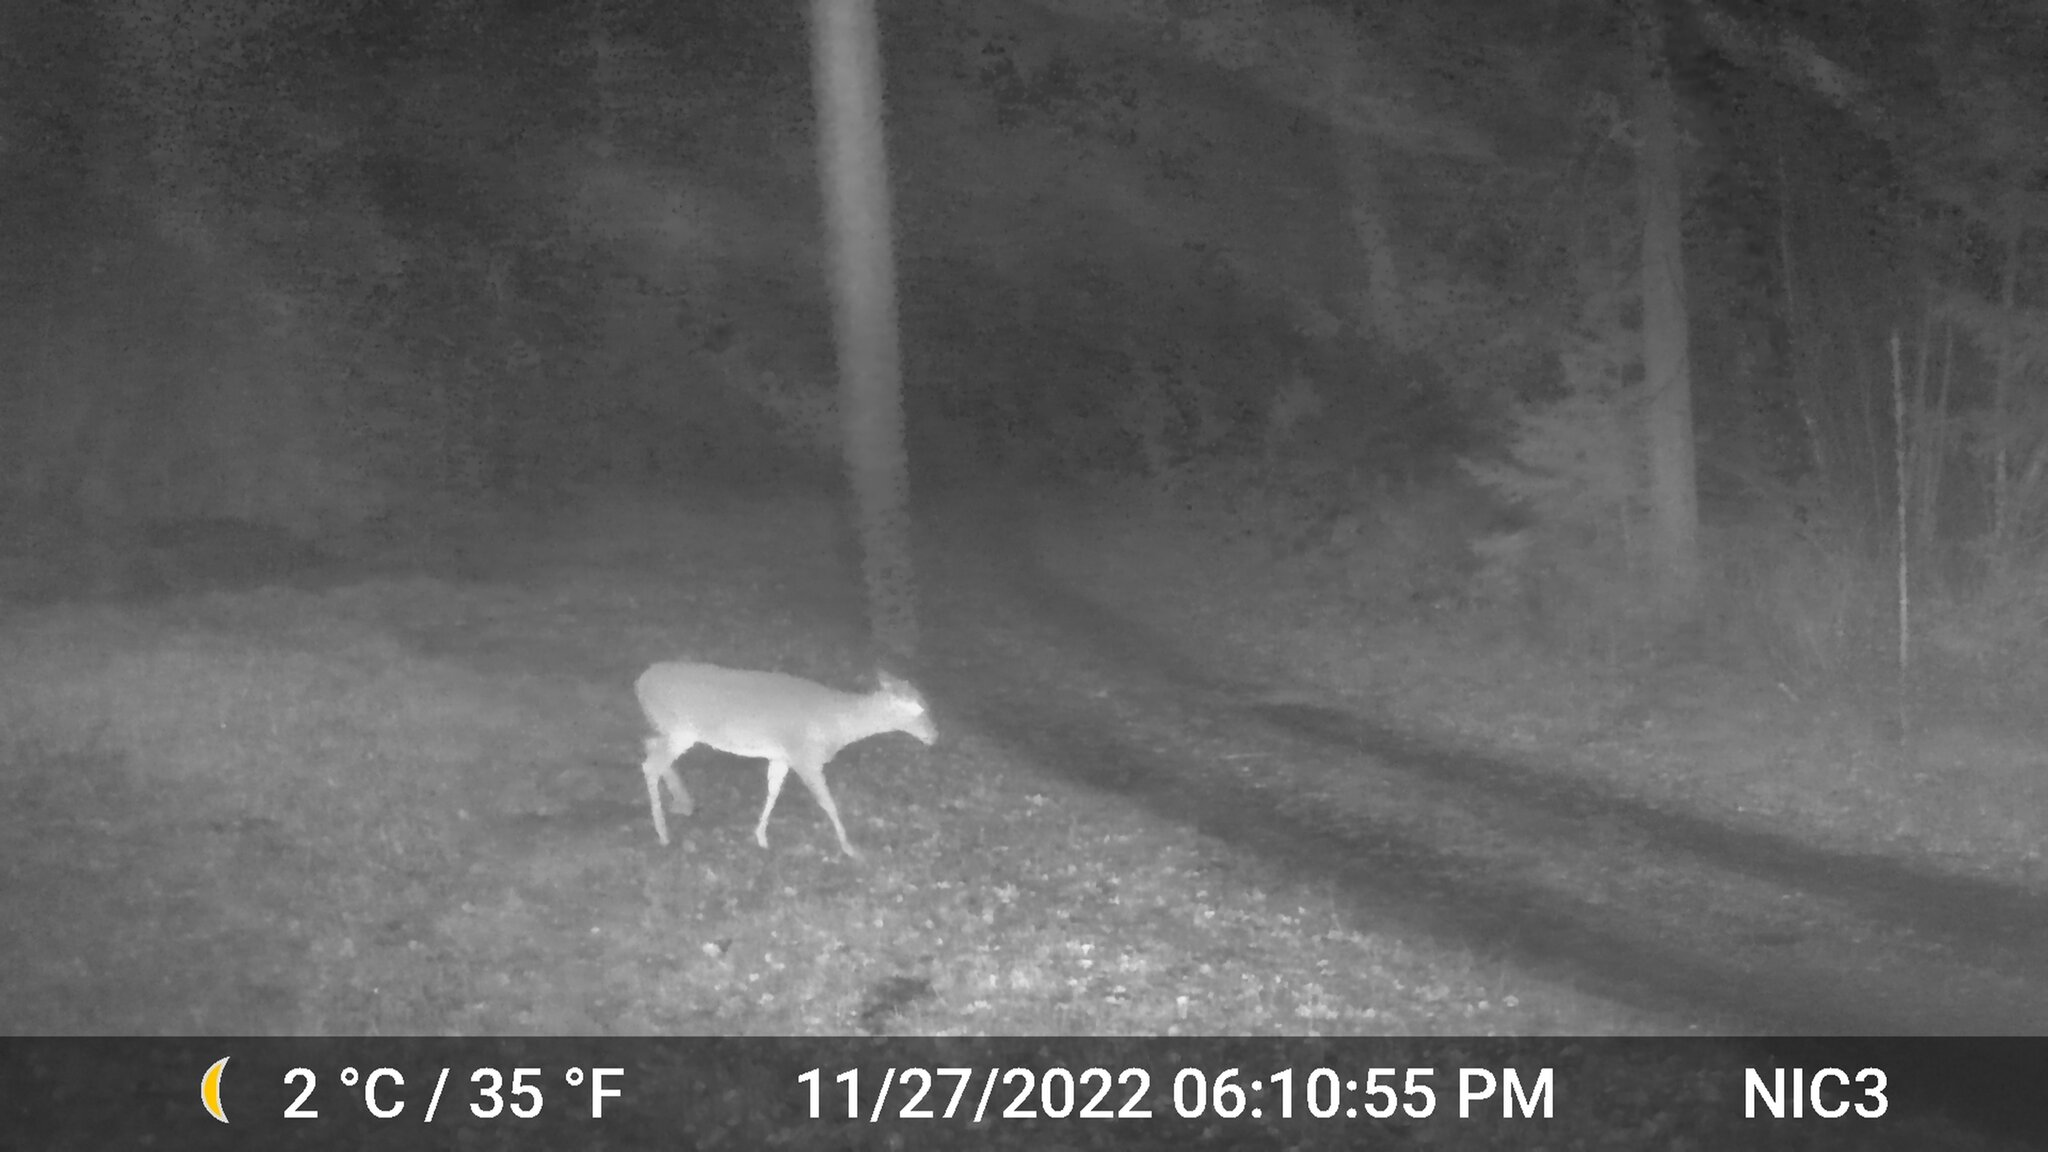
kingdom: Animalia
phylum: Chordata
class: Mammalia
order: Artiodactyla
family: Cervidae
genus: Odocoileus
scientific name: Odocoileus virginianus
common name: White-tailed deer
